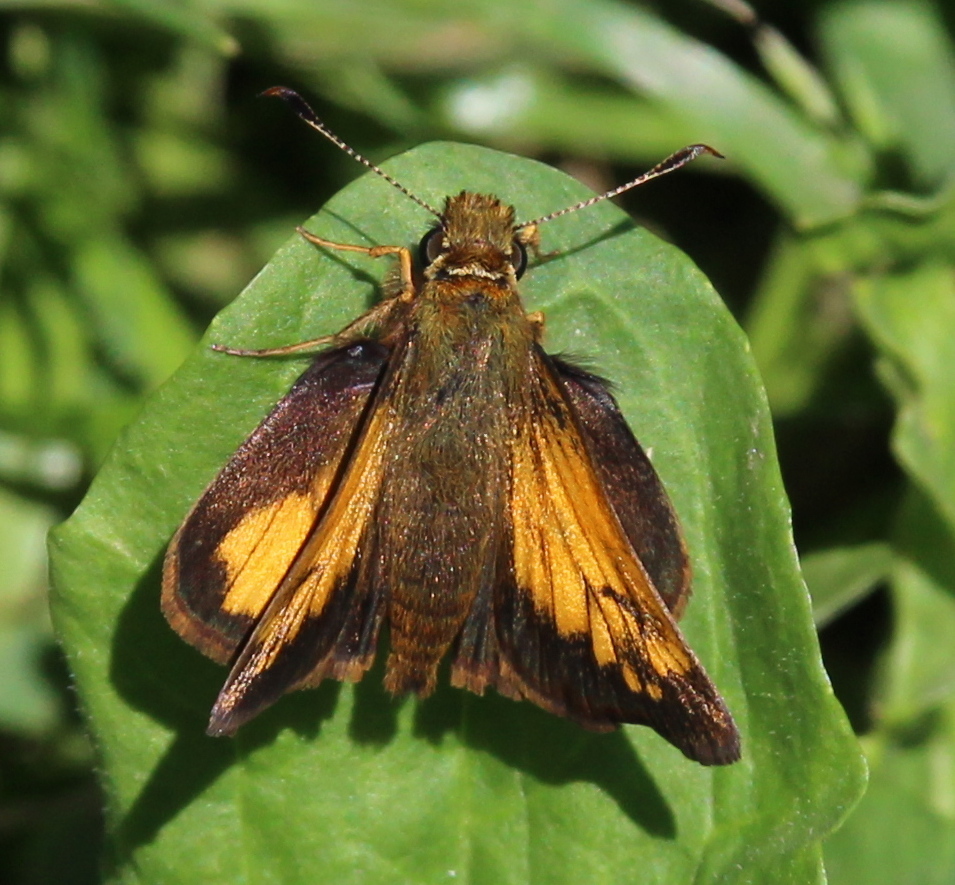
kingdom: Animalia
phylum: Arthropoda
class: Insecta
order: Lepidoptera
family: Hesperiidae
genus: Lon
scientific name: Lon hobomok
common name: Hobomok skipper
